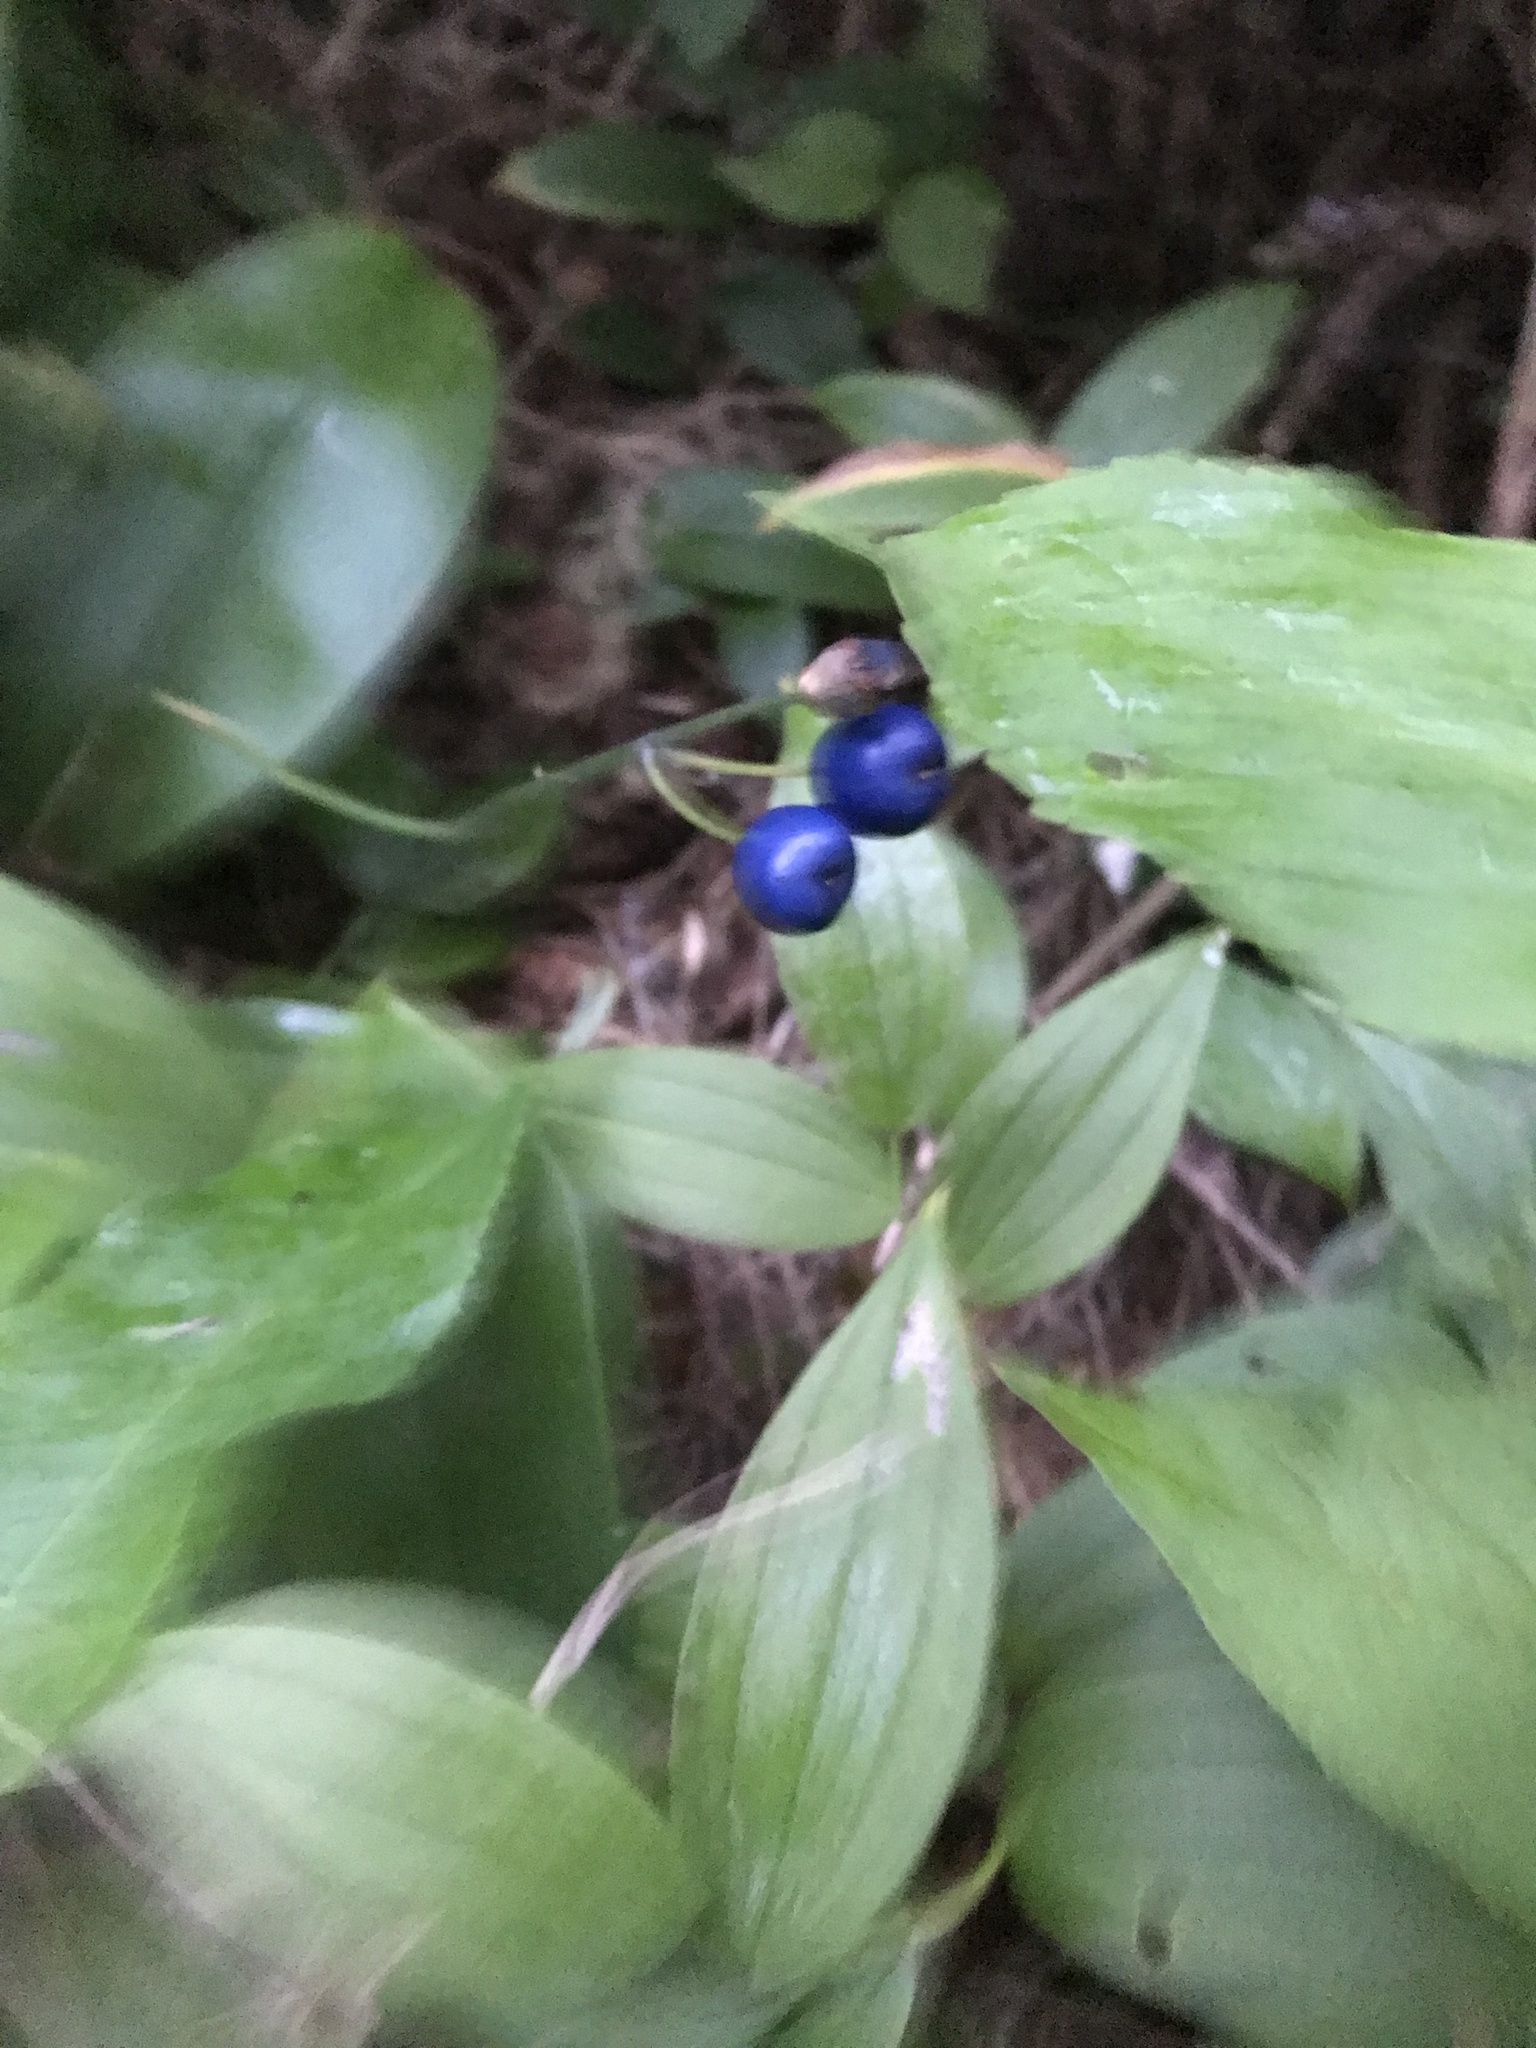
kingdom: Plantae
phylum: Tracheophyta
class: Liliopsida
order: Liliales
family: Liliaceae
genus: Clintonia
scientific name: Clintonia borealis
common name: Yellow clintonia
